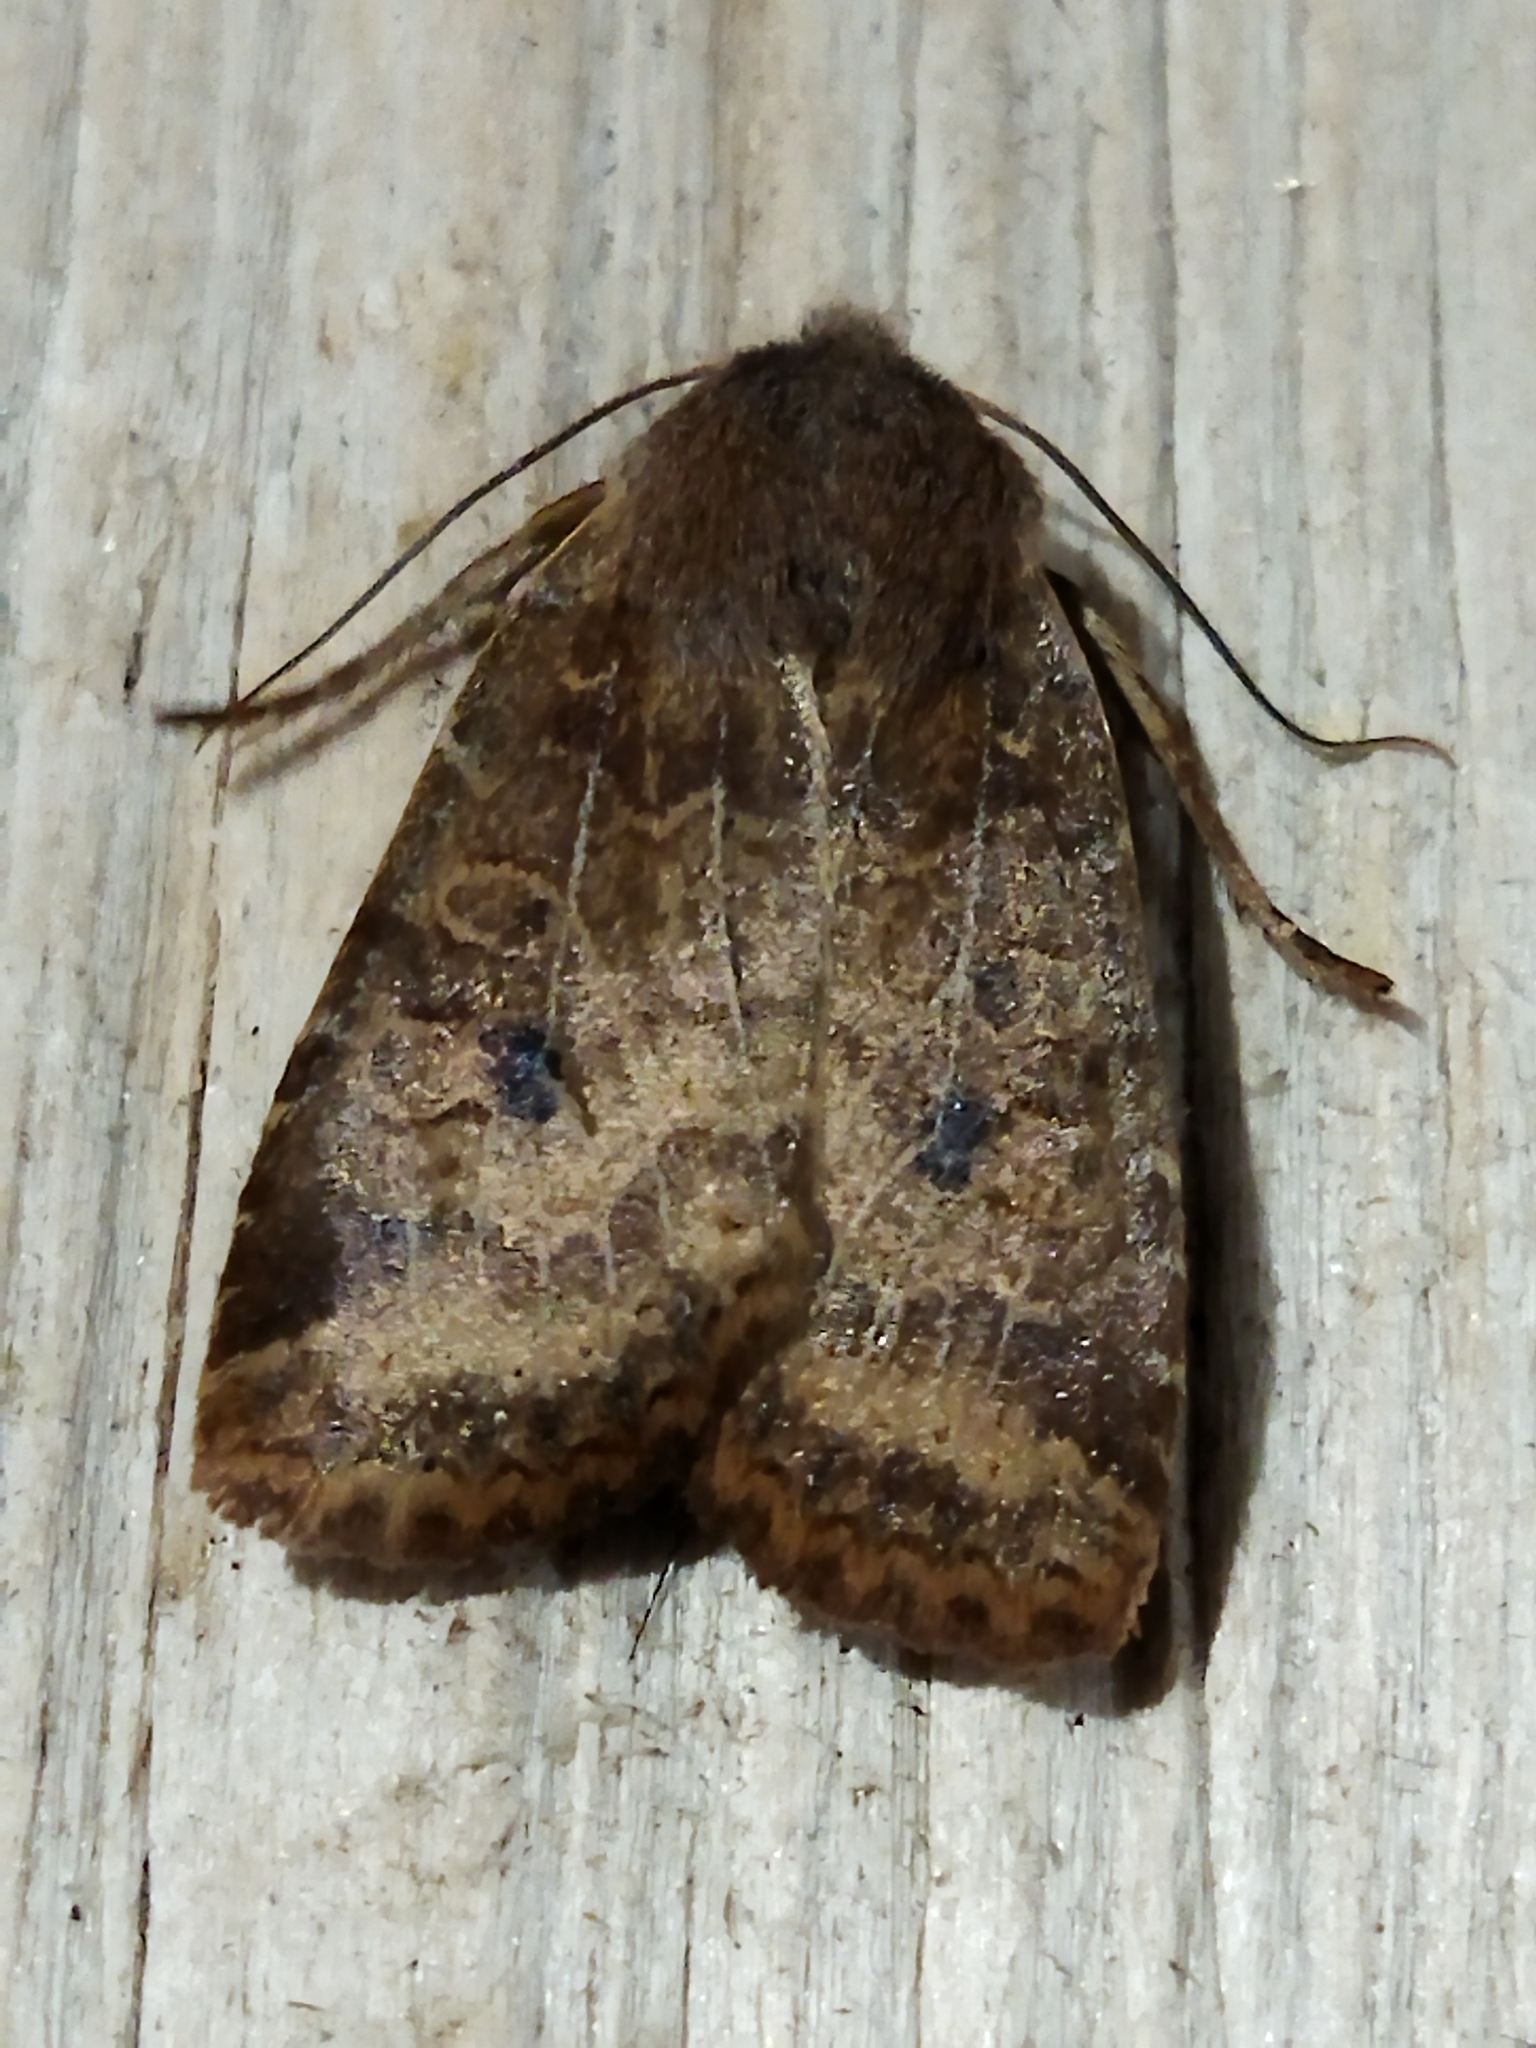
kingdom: Animalia
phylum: Arthropoda
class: Insecta
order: Lepidoptera
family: Noctuidae
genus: Conistra
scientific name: Conistra vaccinii
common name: Chestnut
